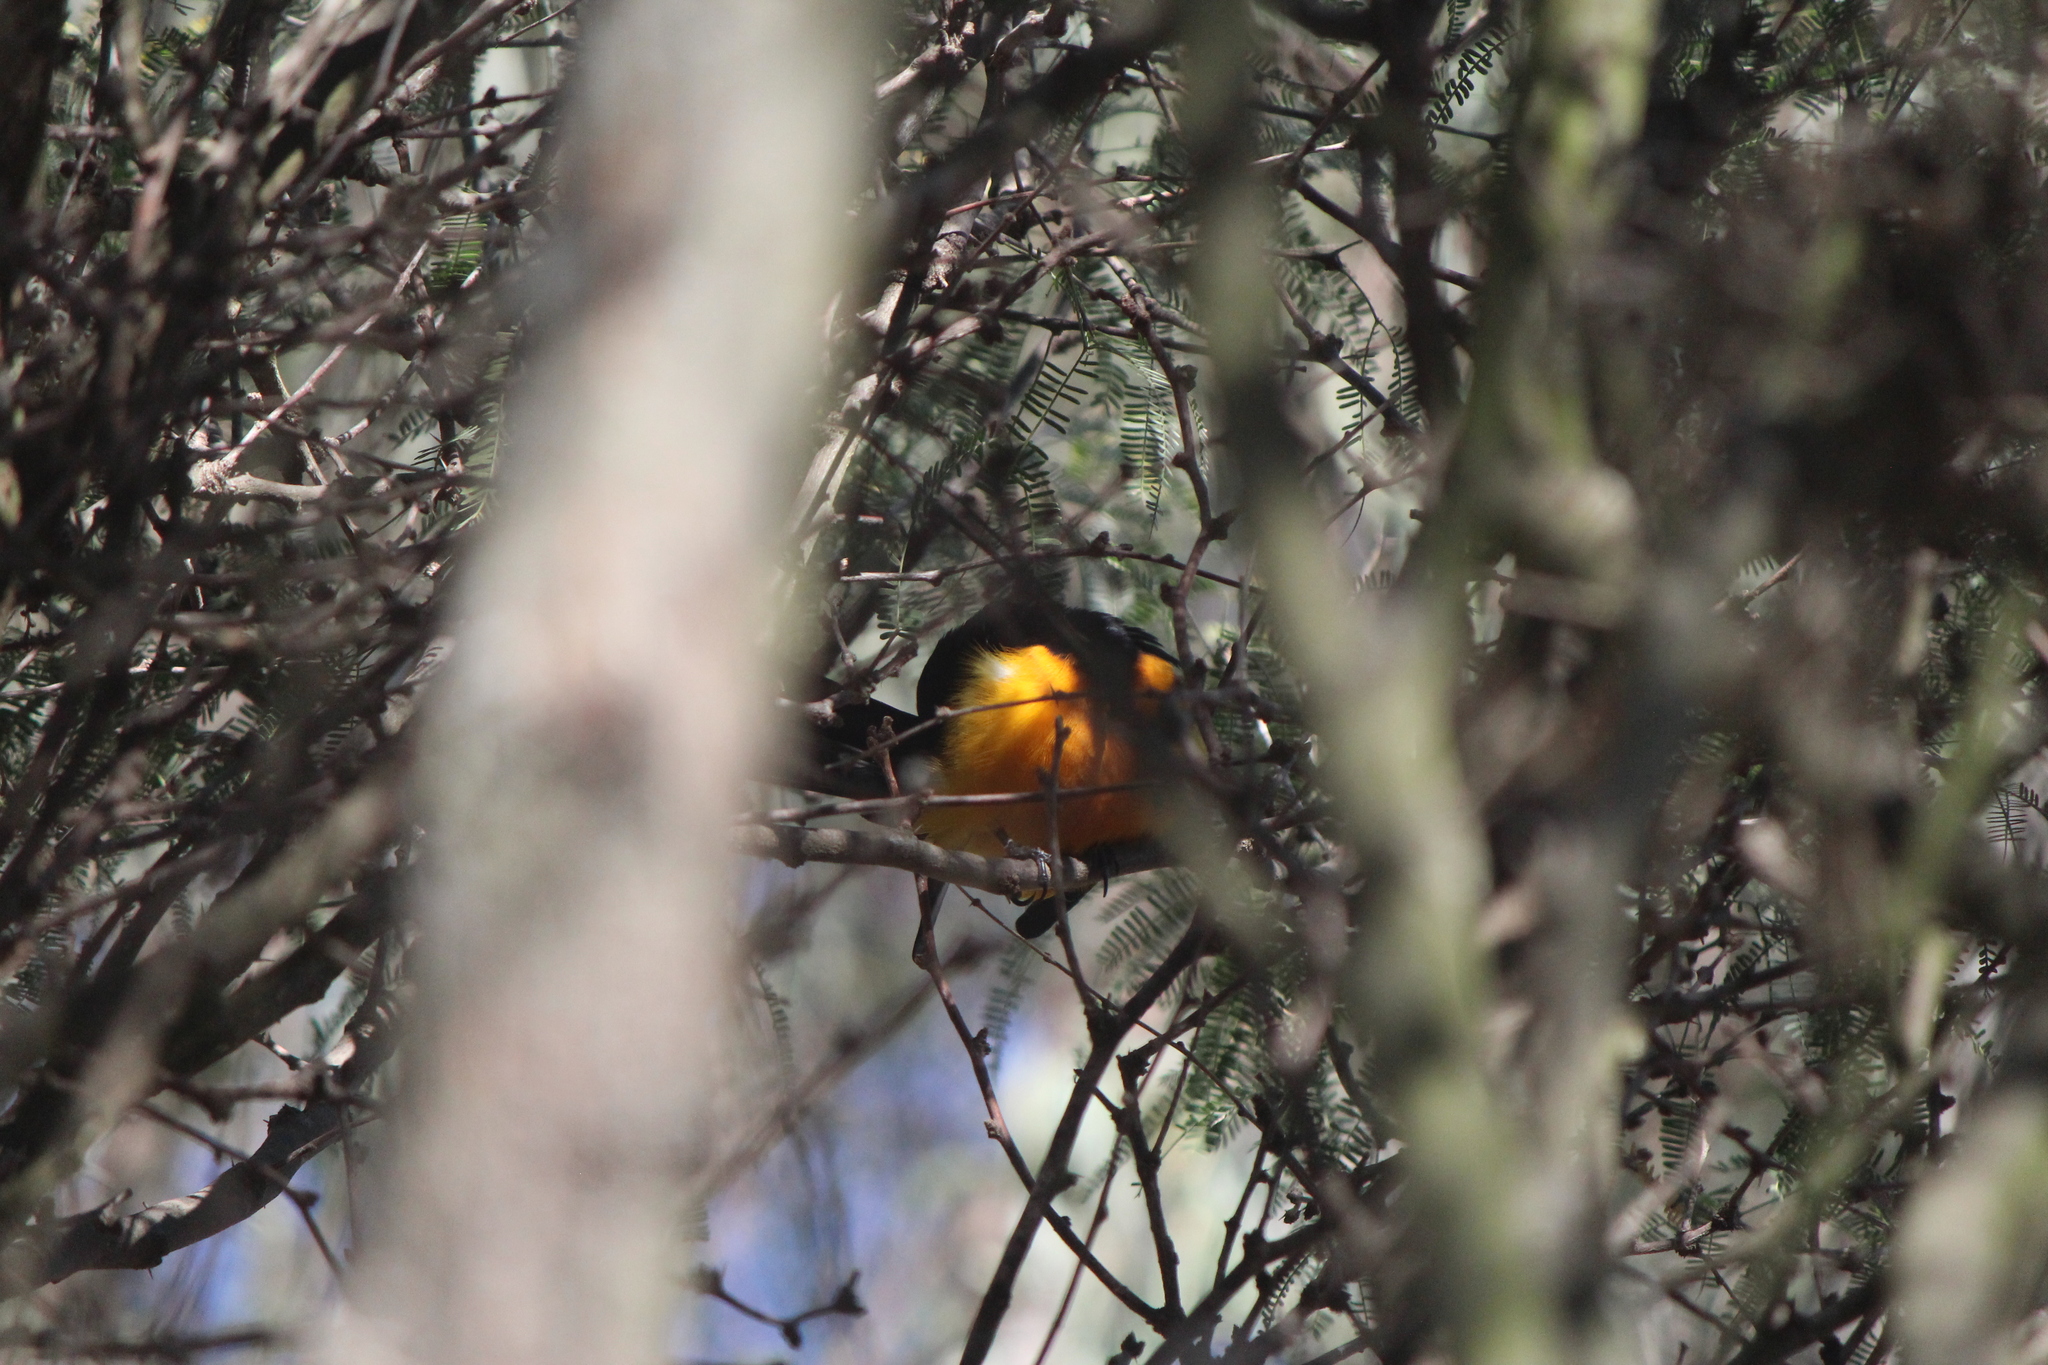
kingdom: Animalia
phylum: Chordata
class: Aves
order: Passeriformes
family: Icteridae
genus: Icterus
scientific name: Icterus wagleri
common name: Black-vented oriole
